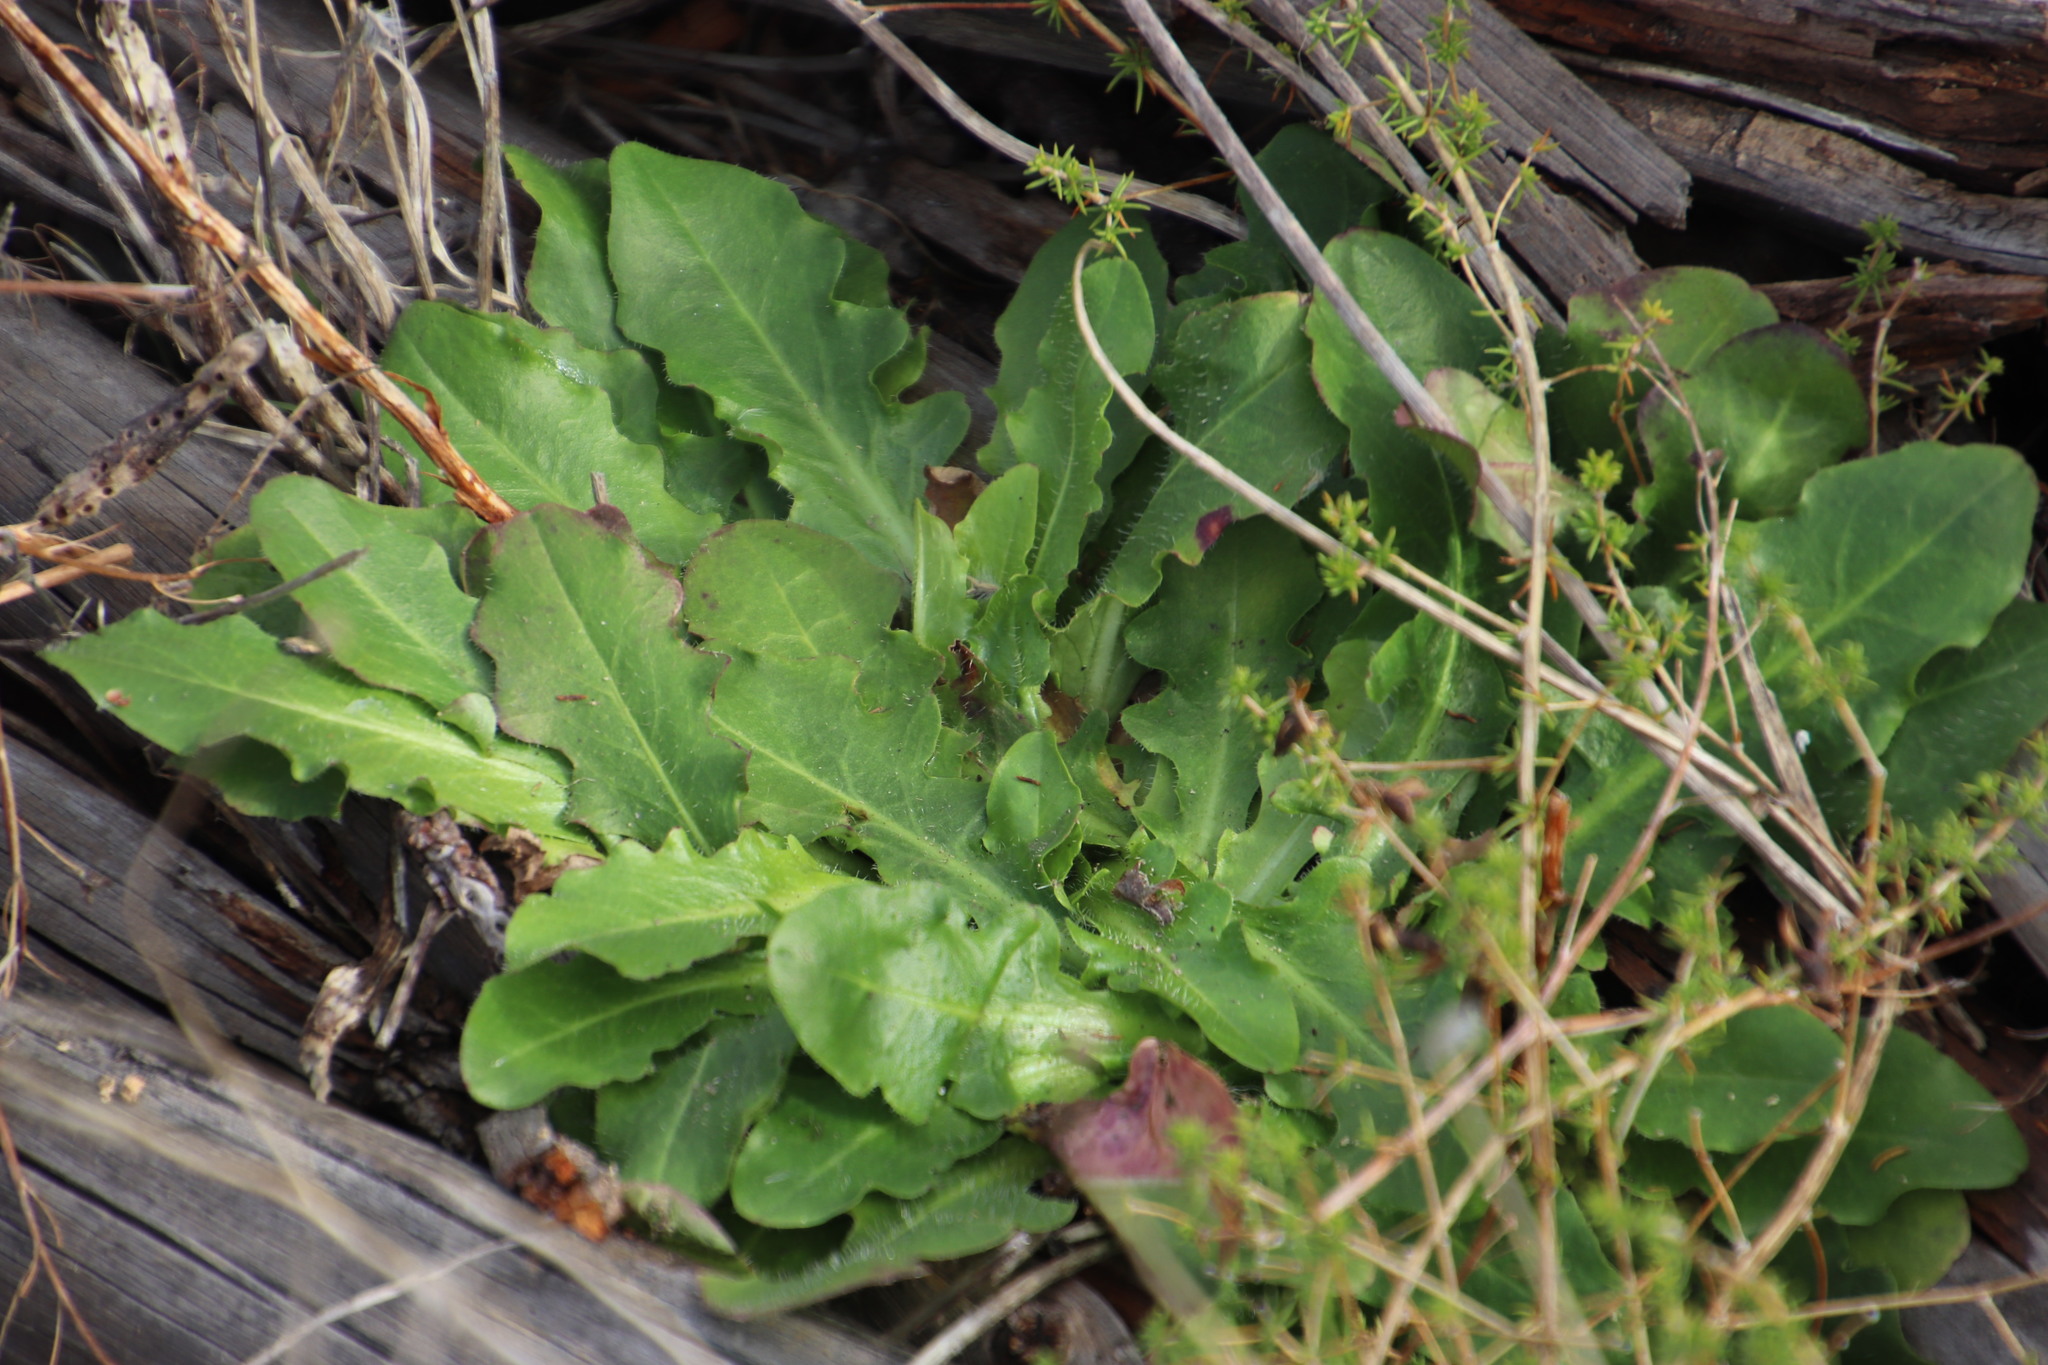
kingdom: Plantae
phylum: Tracheophyta
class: Magnoliopsida
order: Asterales
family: Asteraceae
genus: Hypochaeris
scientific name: Hypochaeris radicata
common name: Flatweed
